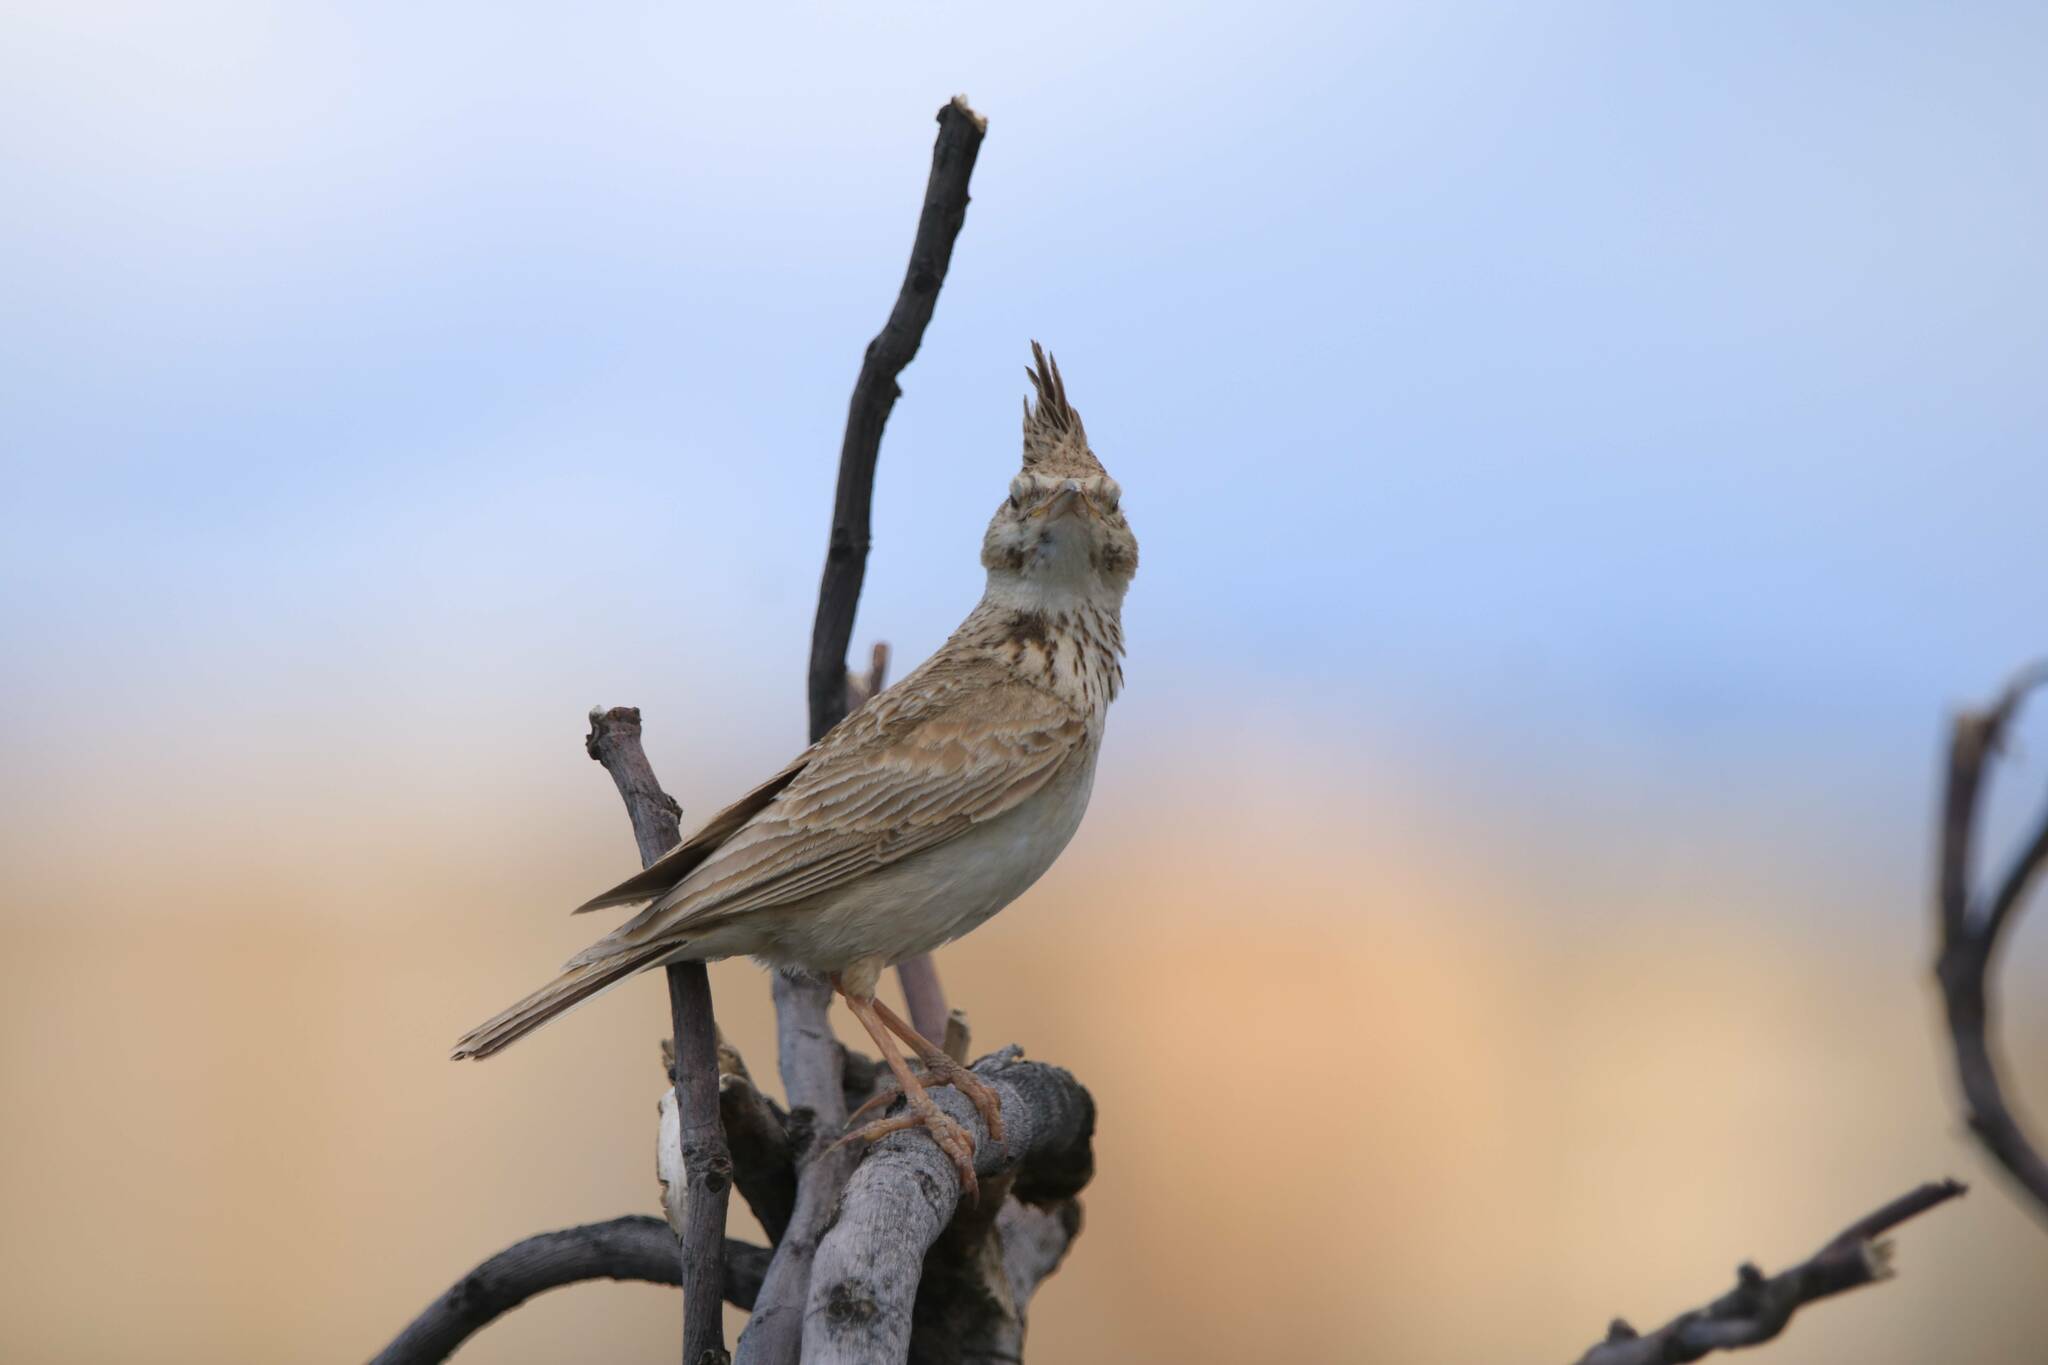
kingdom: Animalia
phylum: Chordata
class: Aves
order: Passeriformes
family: Alaudidae
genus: Galerida
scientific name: Galerida cristata
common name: Crested lark
